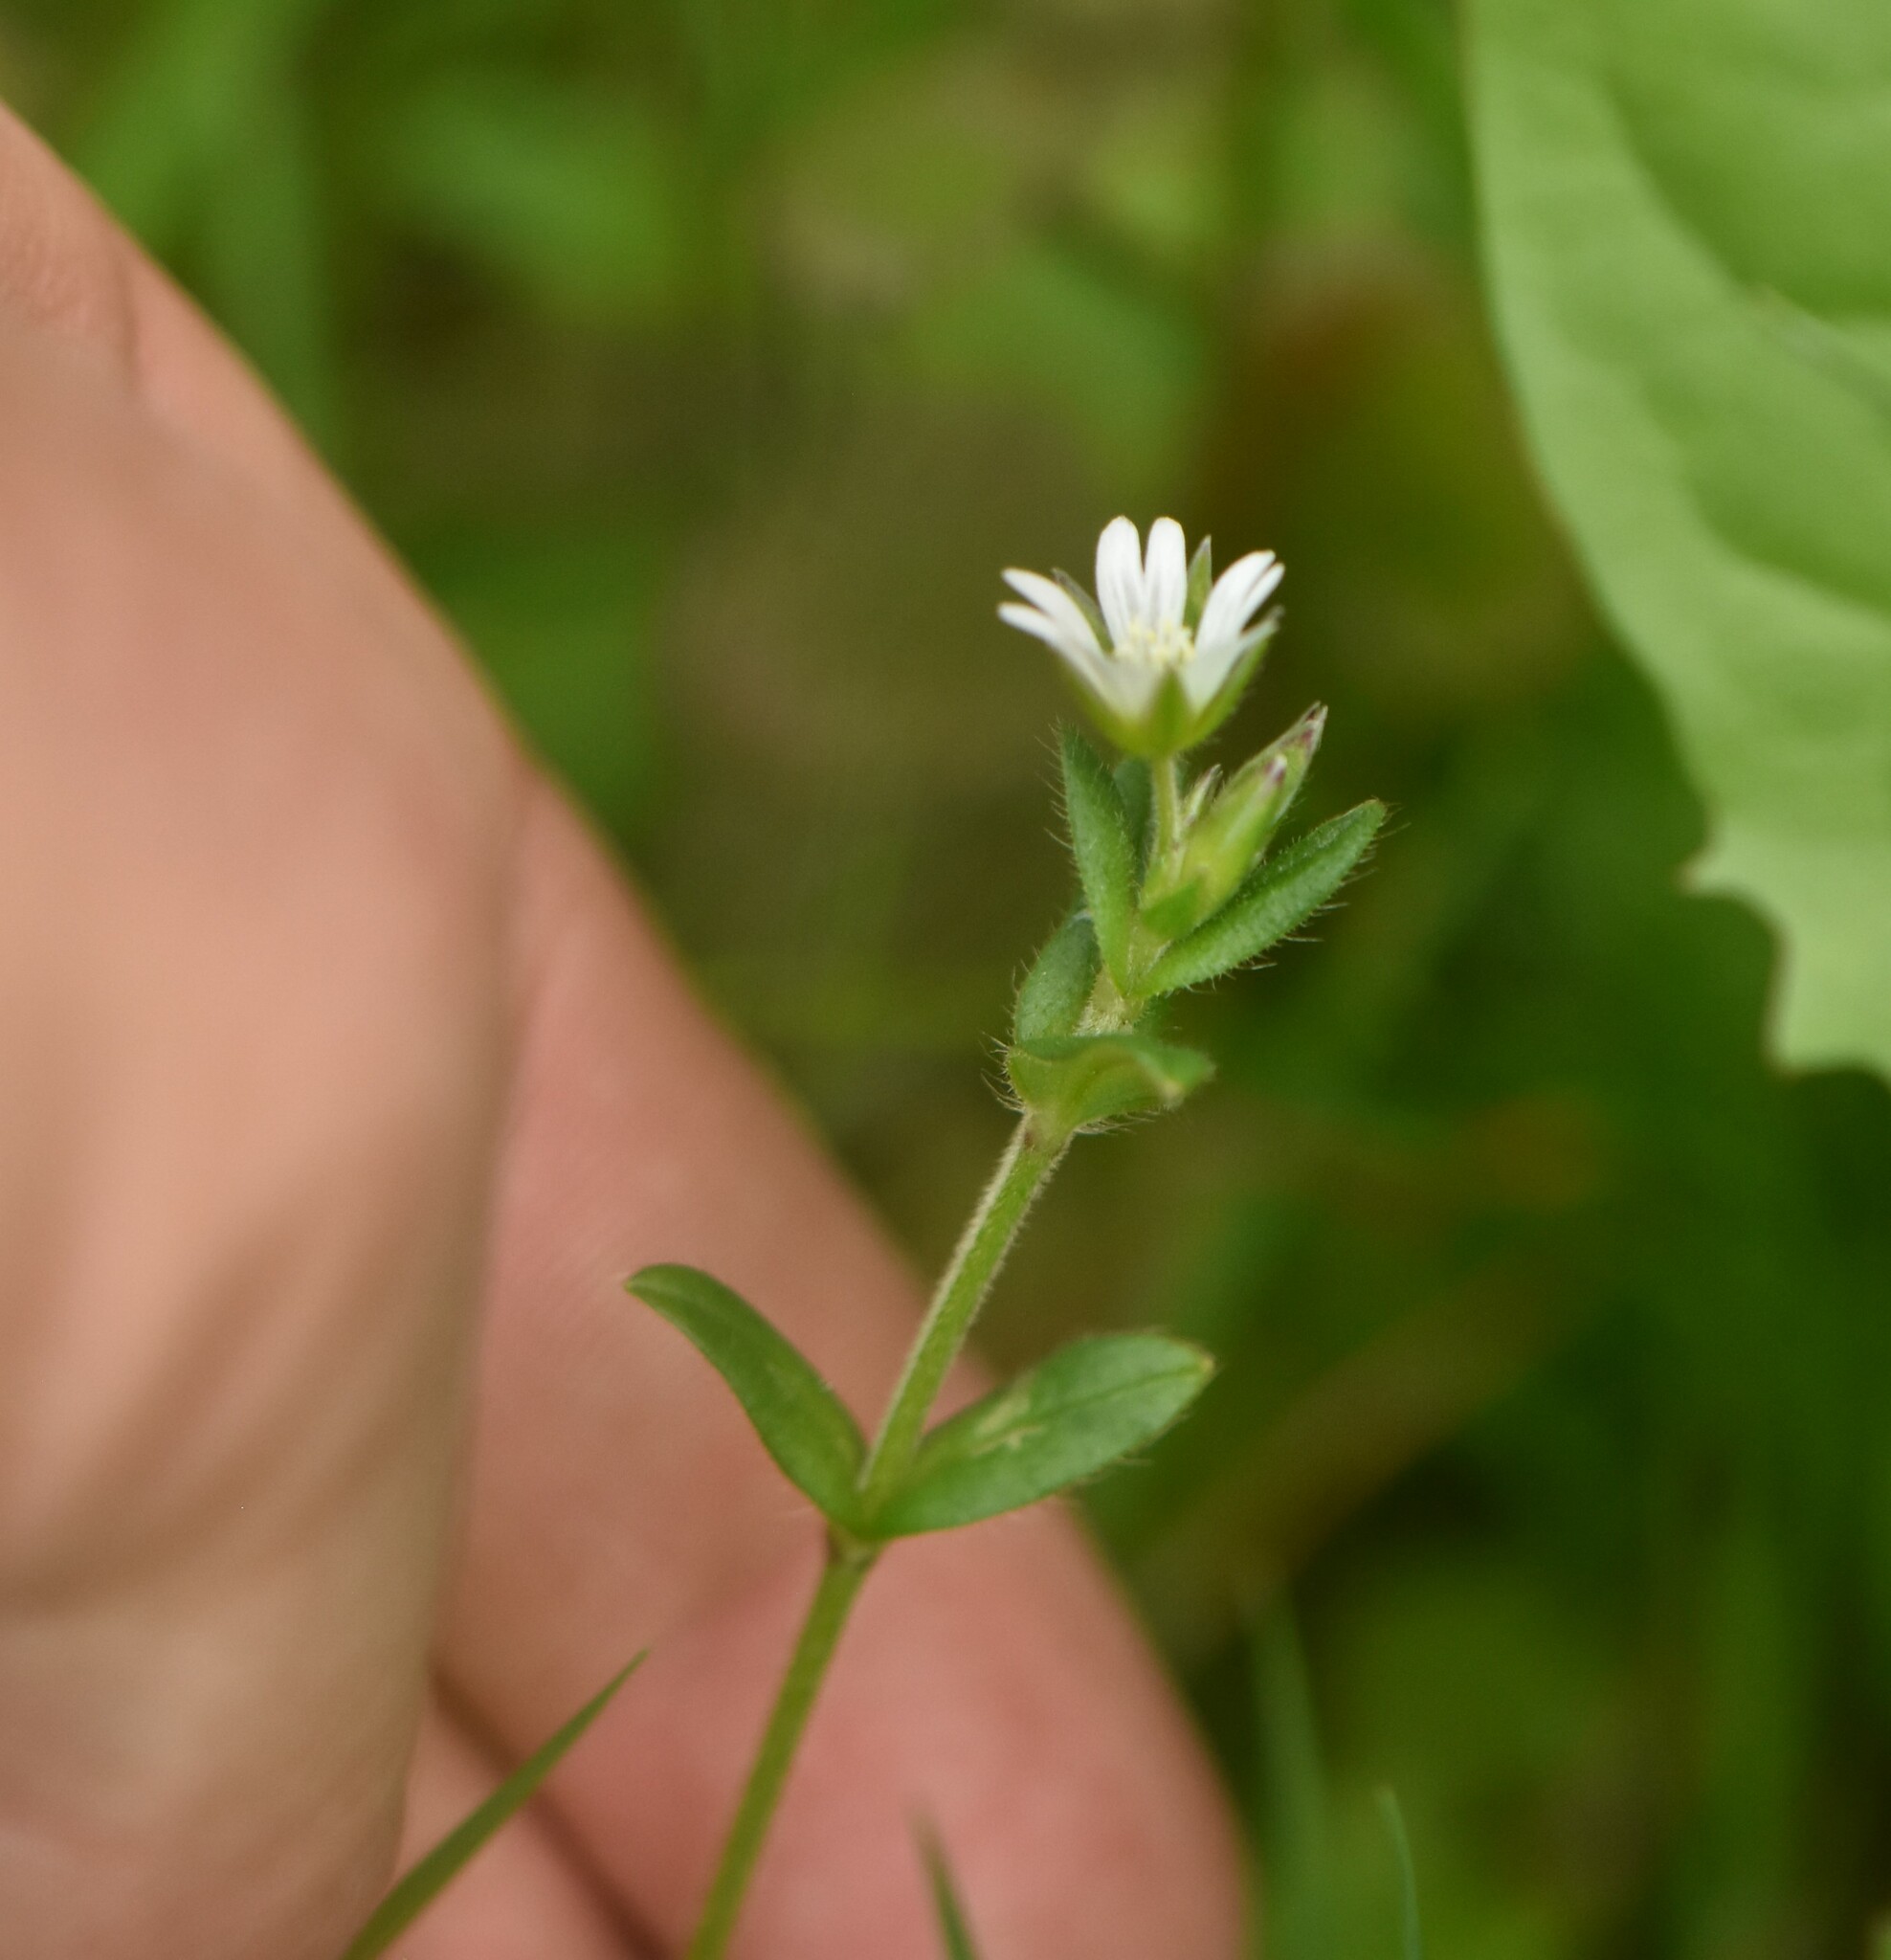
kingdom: Plantae
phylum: Tracheophyta
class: Magnoliopsida
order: Caryophyllales
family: Caryophyllaceae
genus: Cerastium
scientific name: Cerastium holosteoides
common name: Big chickweed
